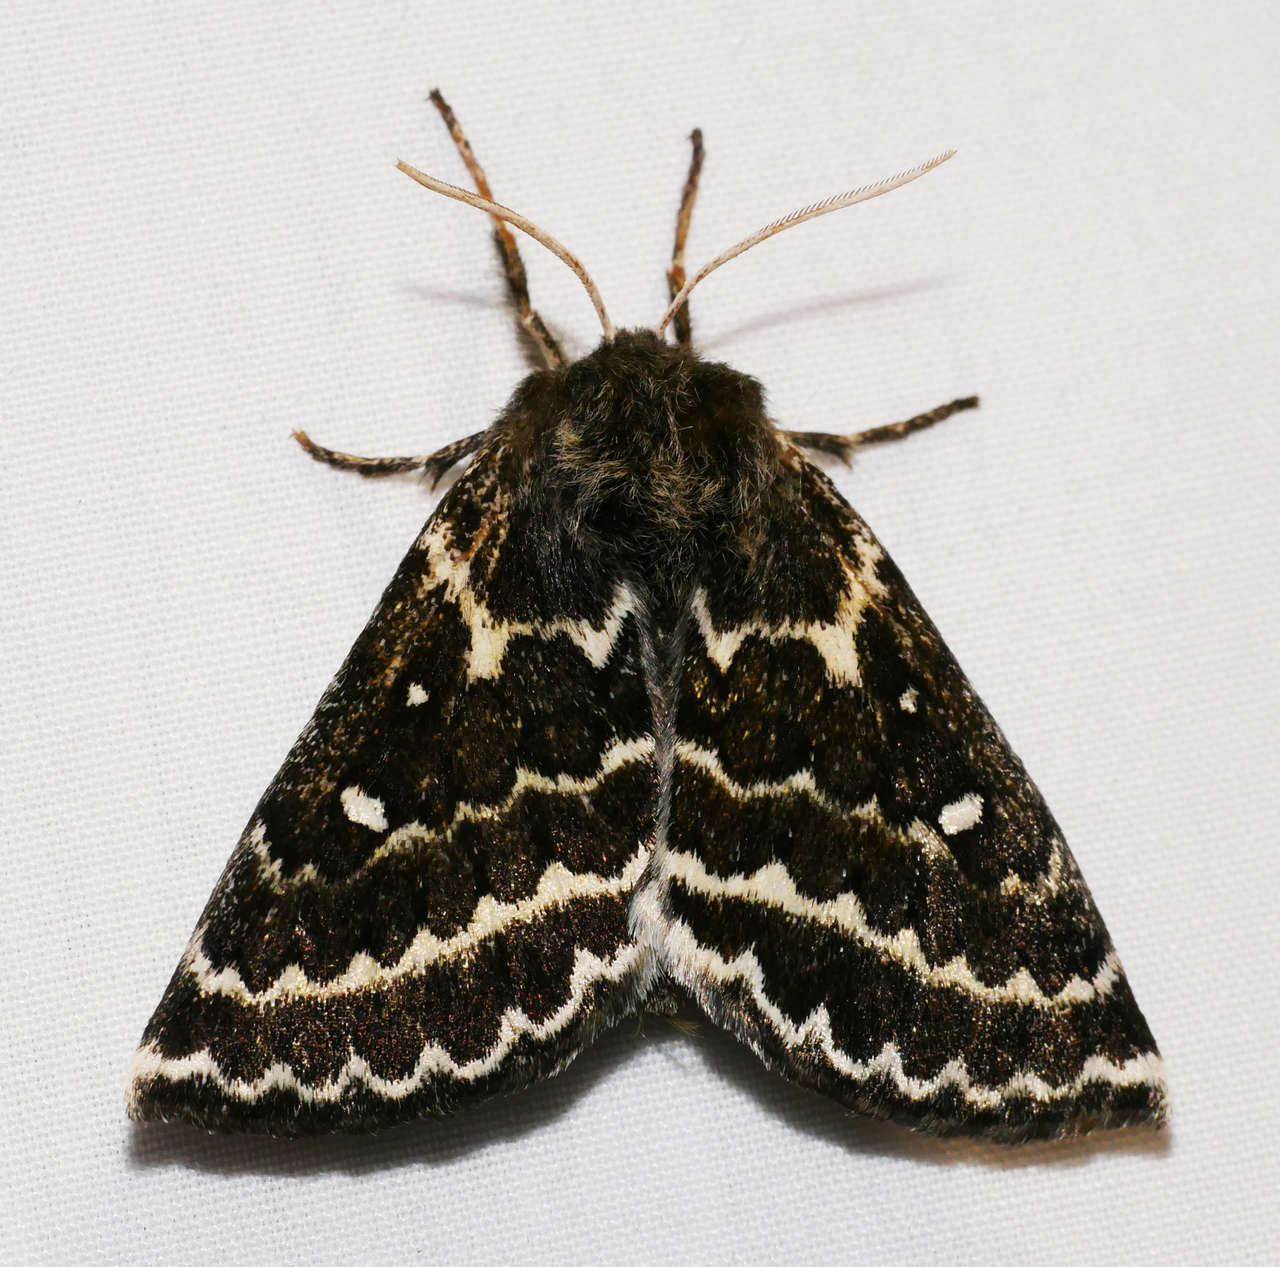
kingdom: Animalia
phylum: Arthropoda
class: Insecta
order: Lepidoptera
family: Anthelidae
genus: Anthela
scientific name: Anthela denticulata
